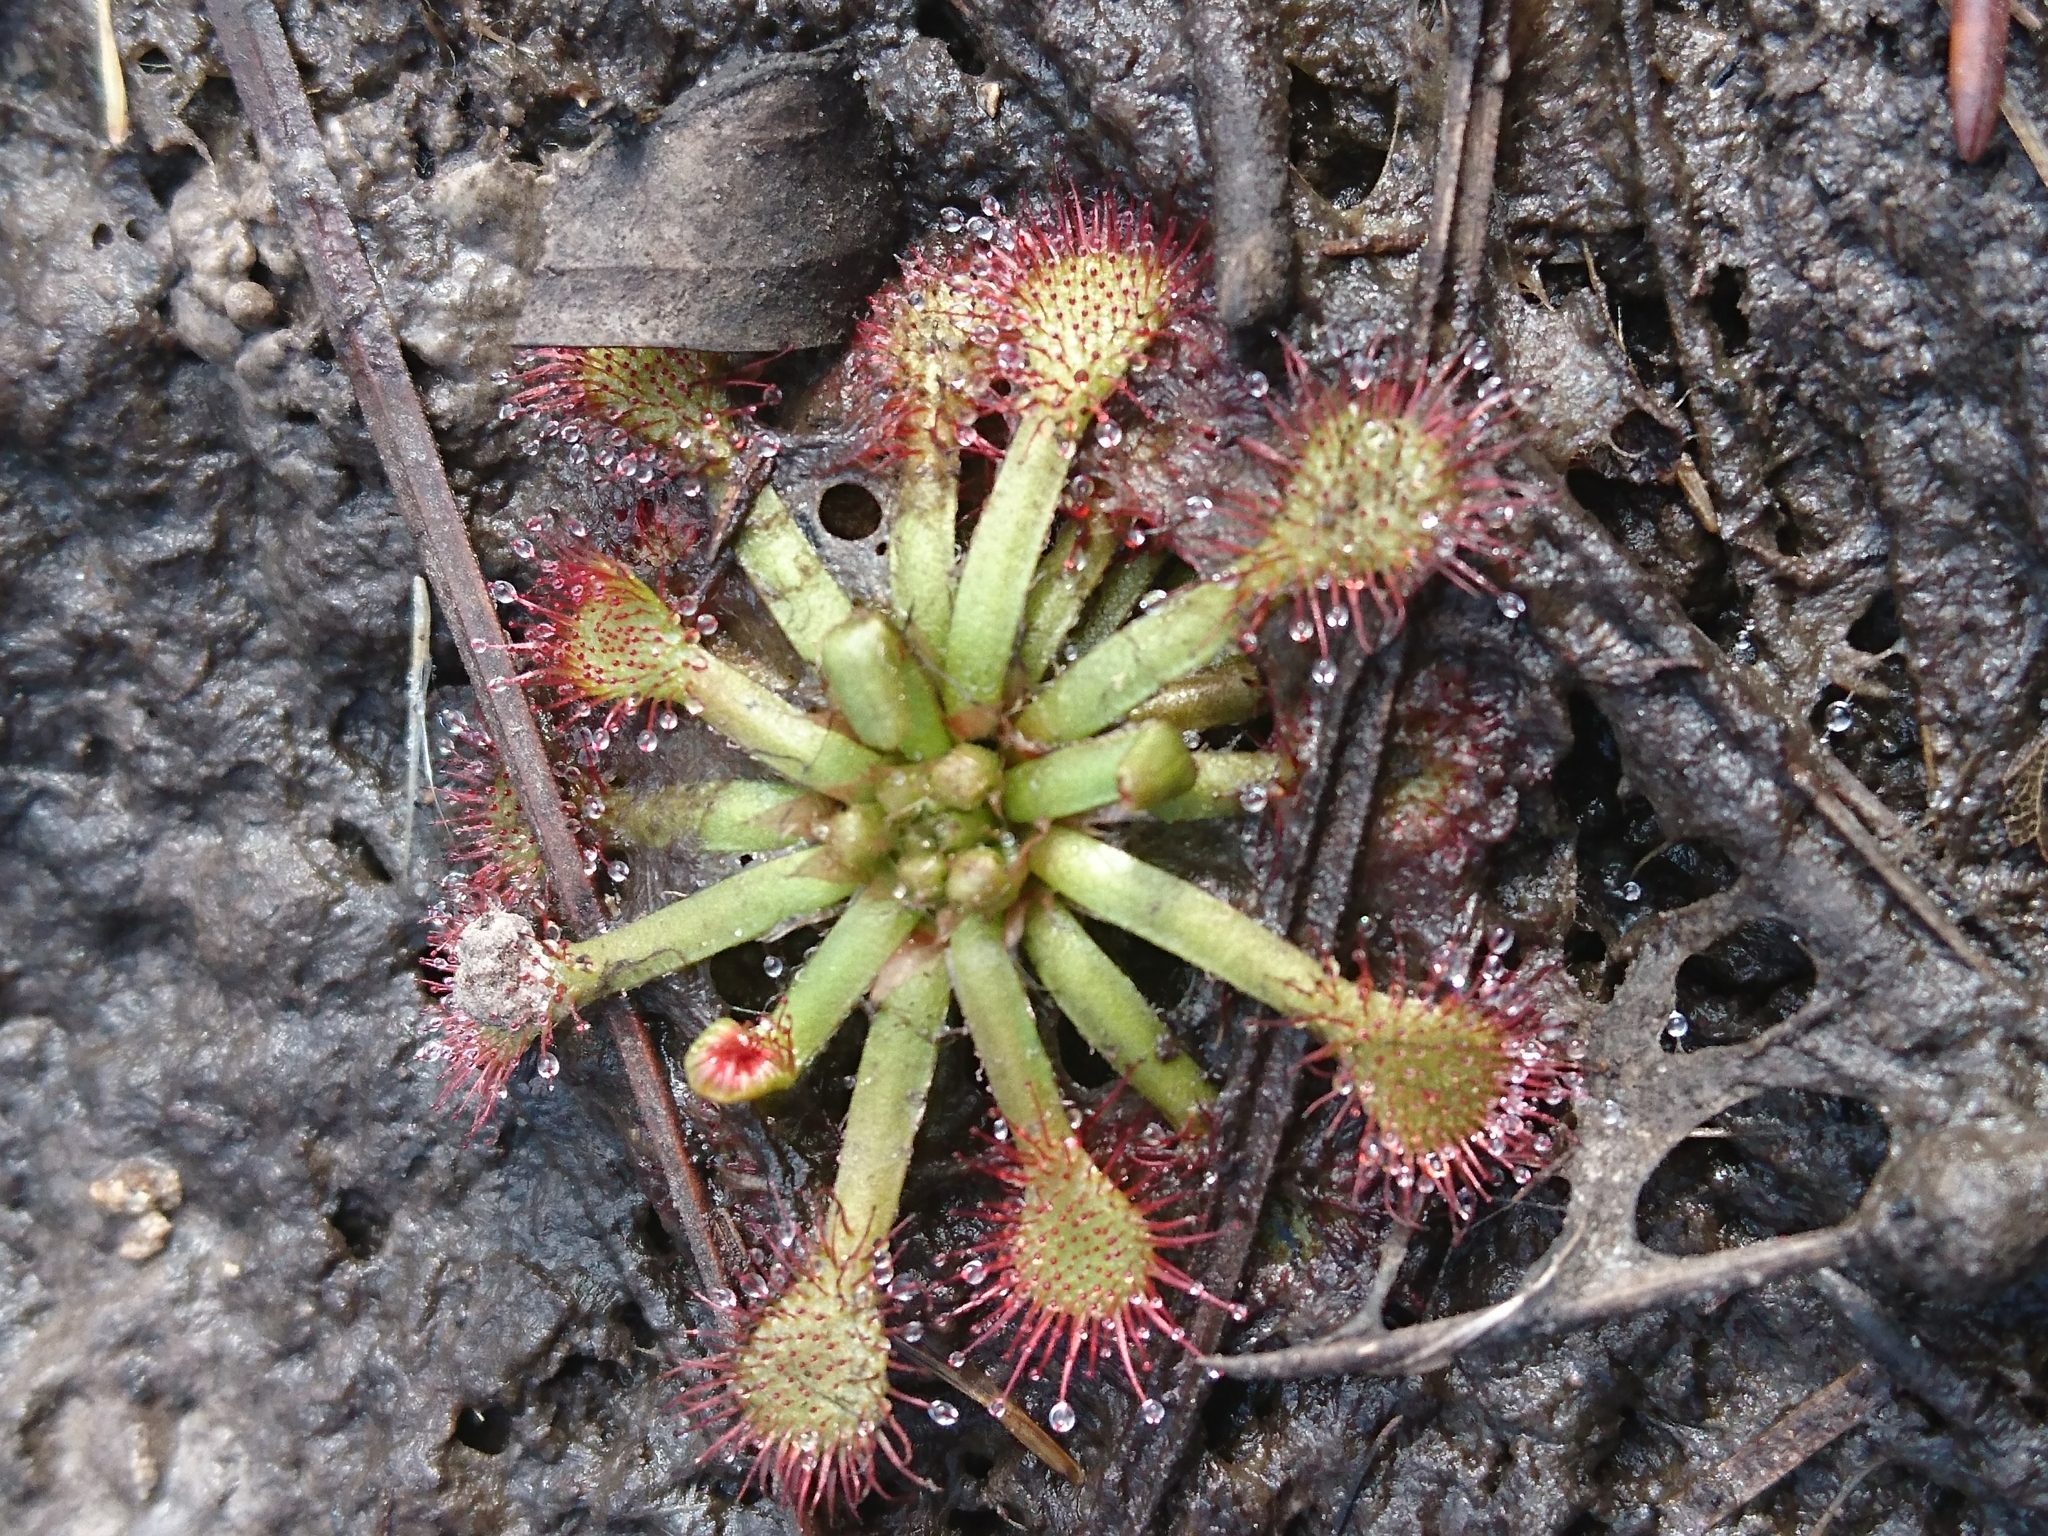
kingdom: Plantae
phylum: Tracheophyta
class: Magnoliopsida
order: Caryophyllales
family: Droseraceae
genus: Drosera
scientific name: Drosera capillaris
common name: Pink sundew
